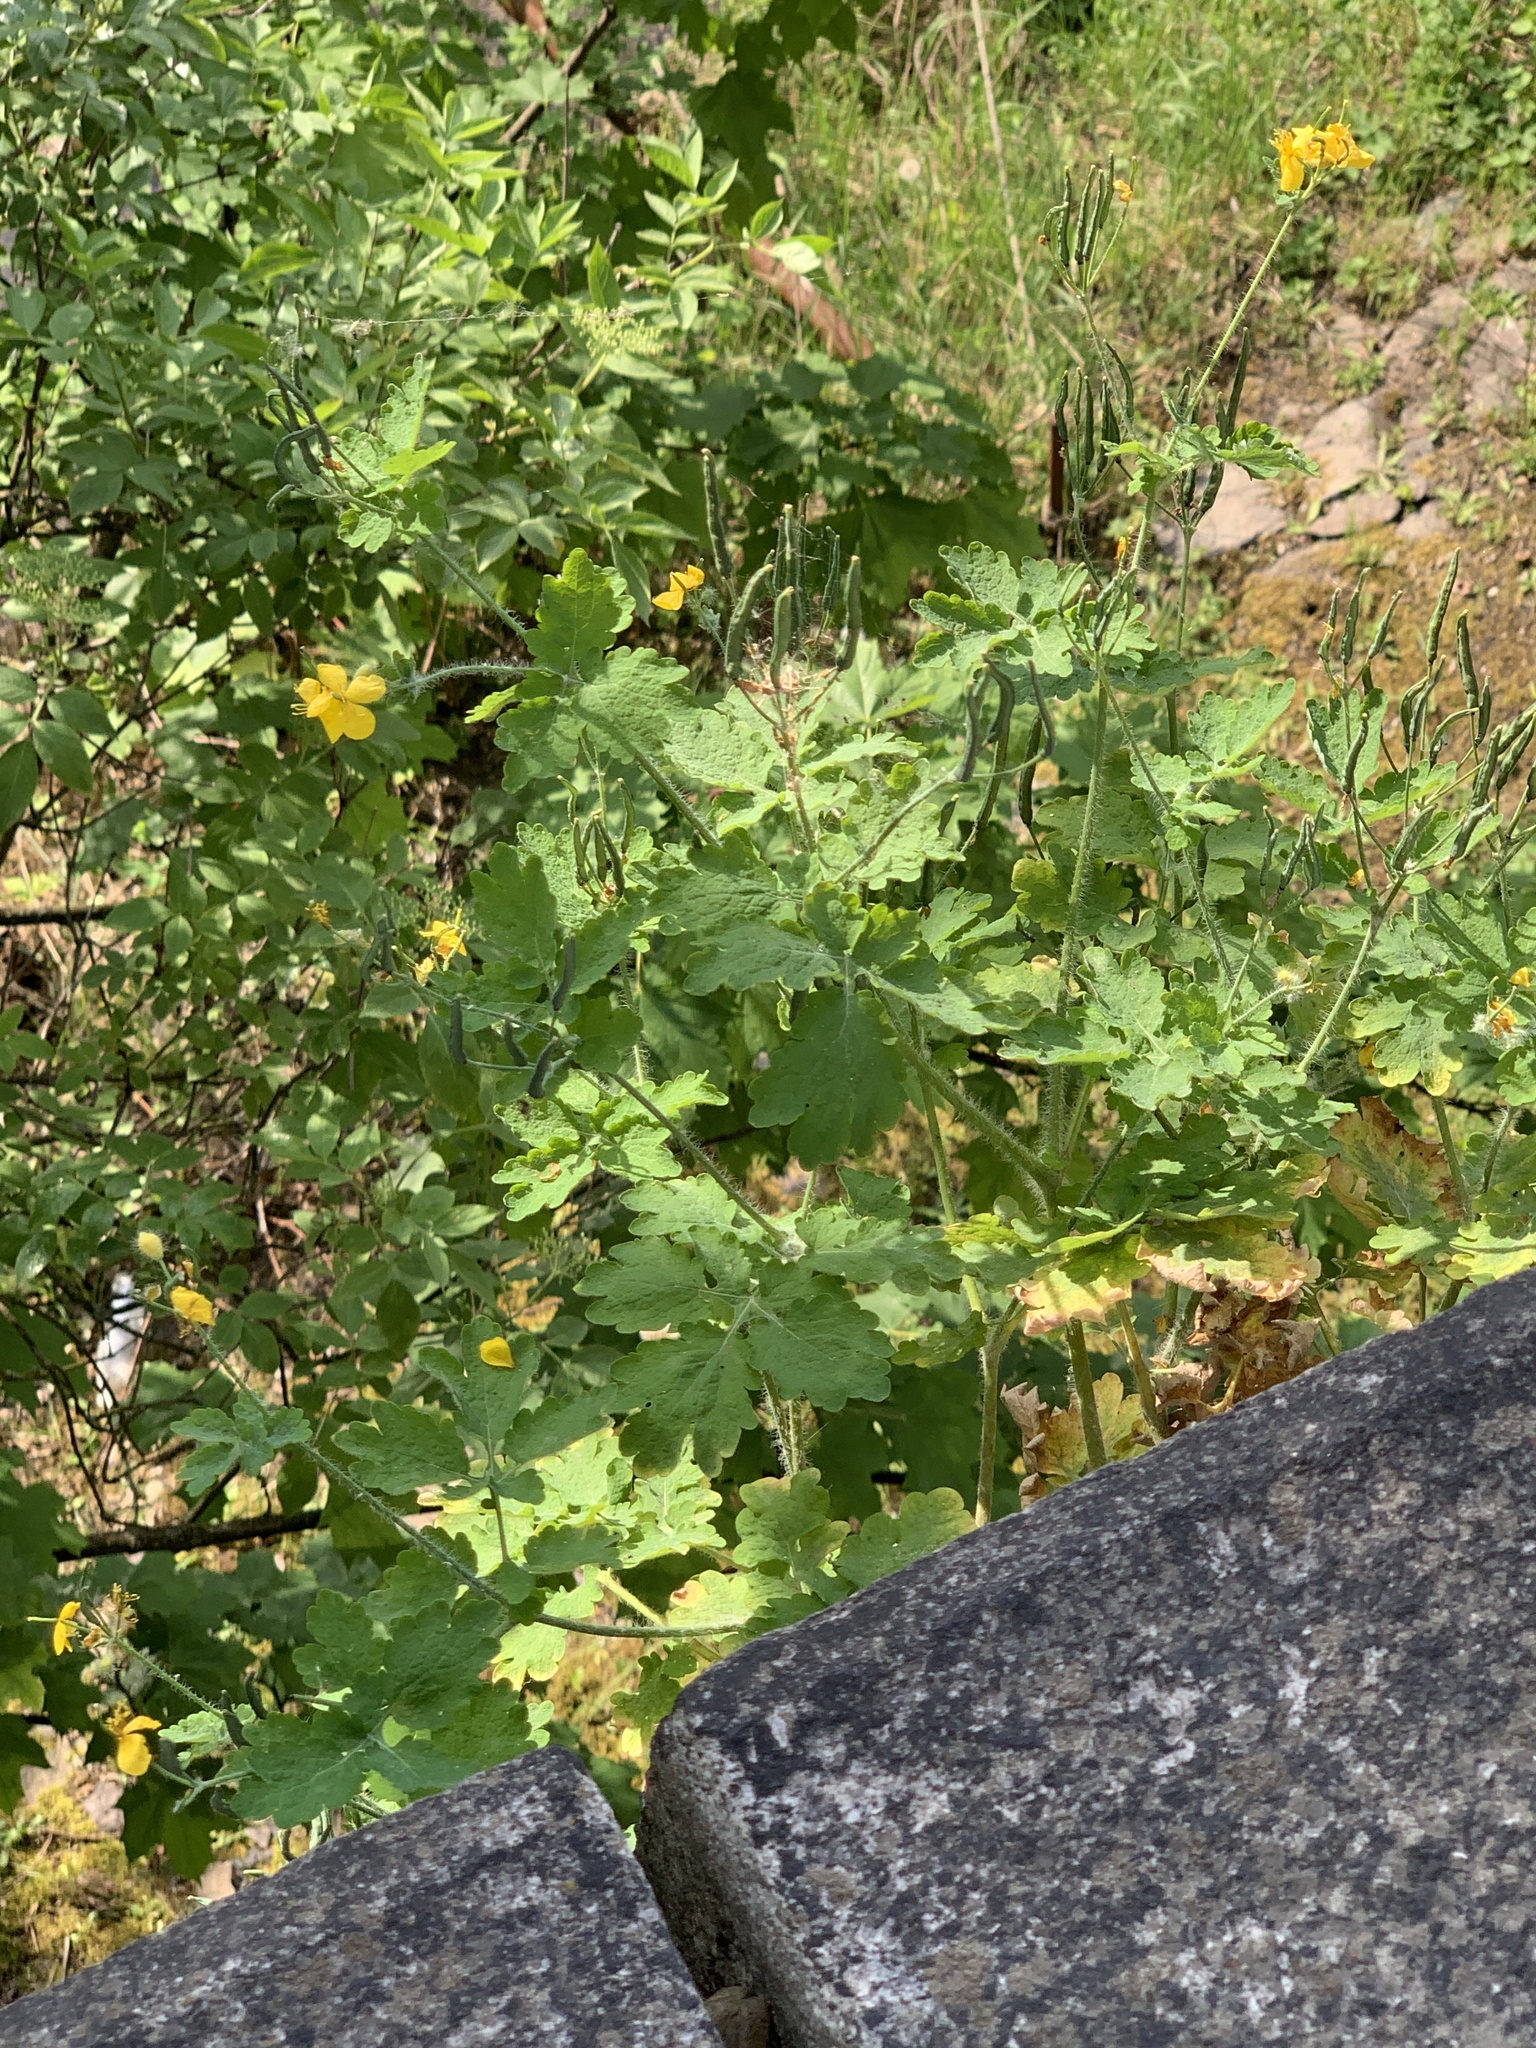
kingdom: Plantae
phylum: Tracheophyta
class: Magnoliopsida
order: Ranunculales
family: Papaveraceae
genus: Chelidonium
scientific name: Chelidonium majus
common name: Greater celandine
